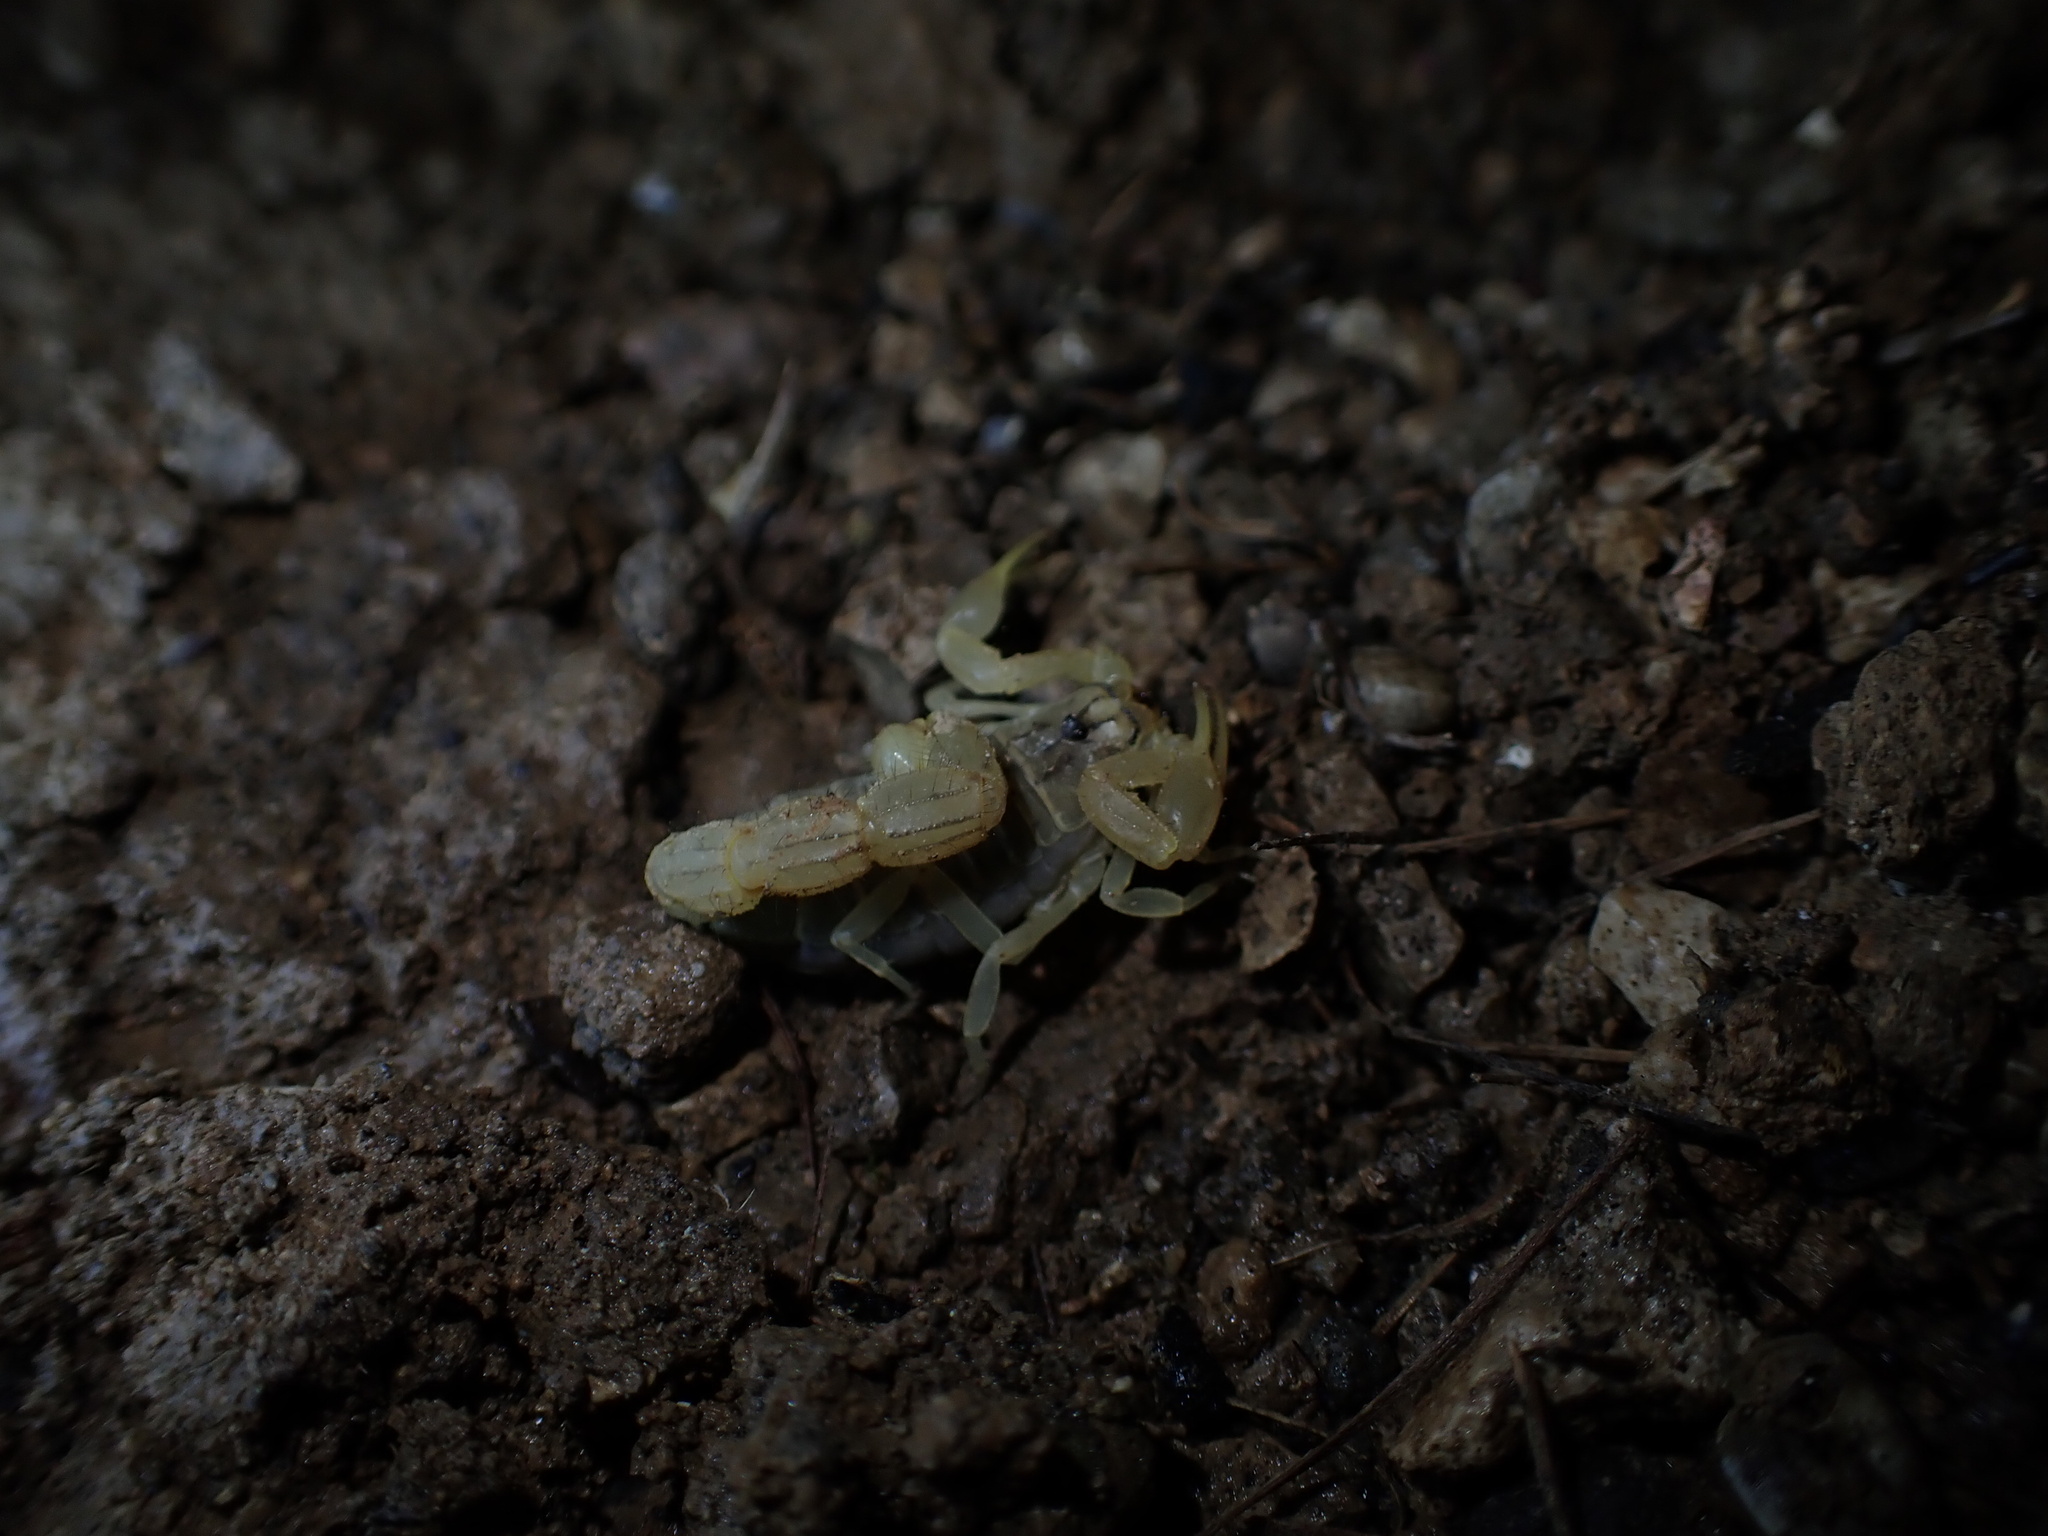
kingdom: Animalia
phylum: Arthropoda
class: Arachnida
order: Scorpiones
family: Buthidae
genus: Mesobuthus
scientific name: Mesobuthus phillipsi
